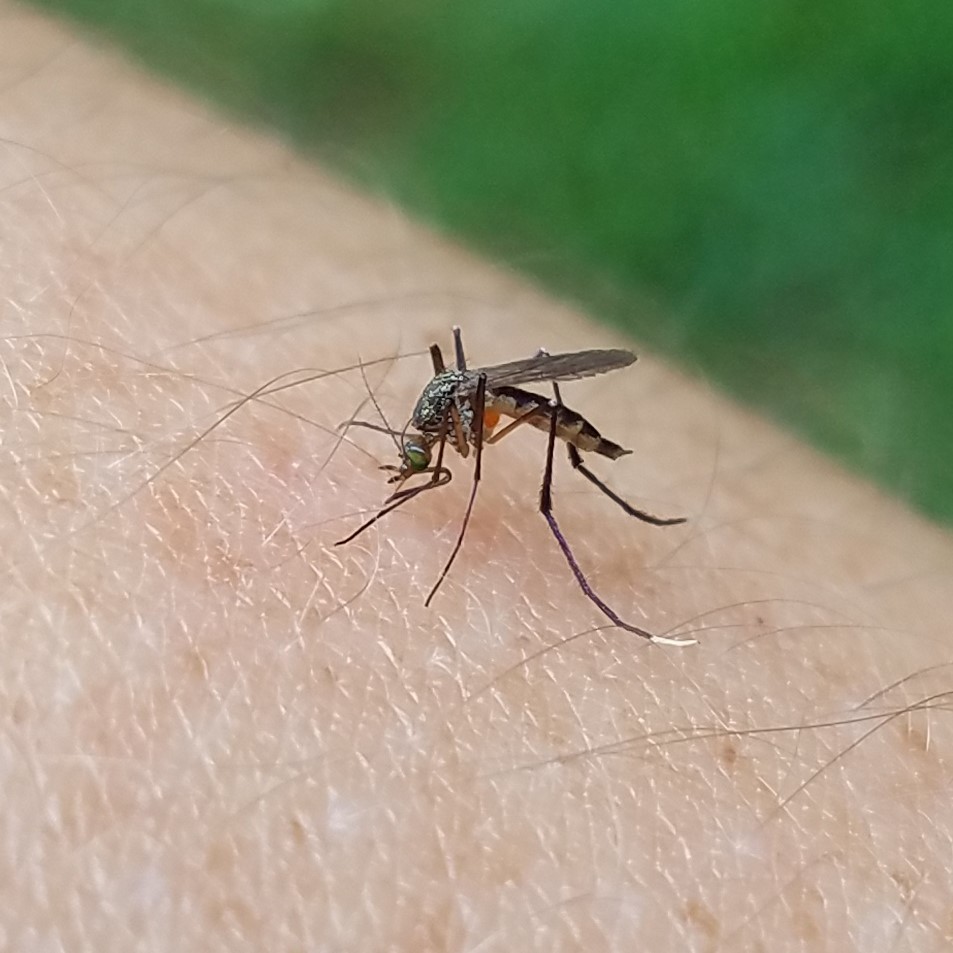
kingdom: Animalia
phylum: Arthropoda
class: Insecta
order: Diptera
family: Culicidae
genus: Psorophora
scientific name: Psorophora ferox
